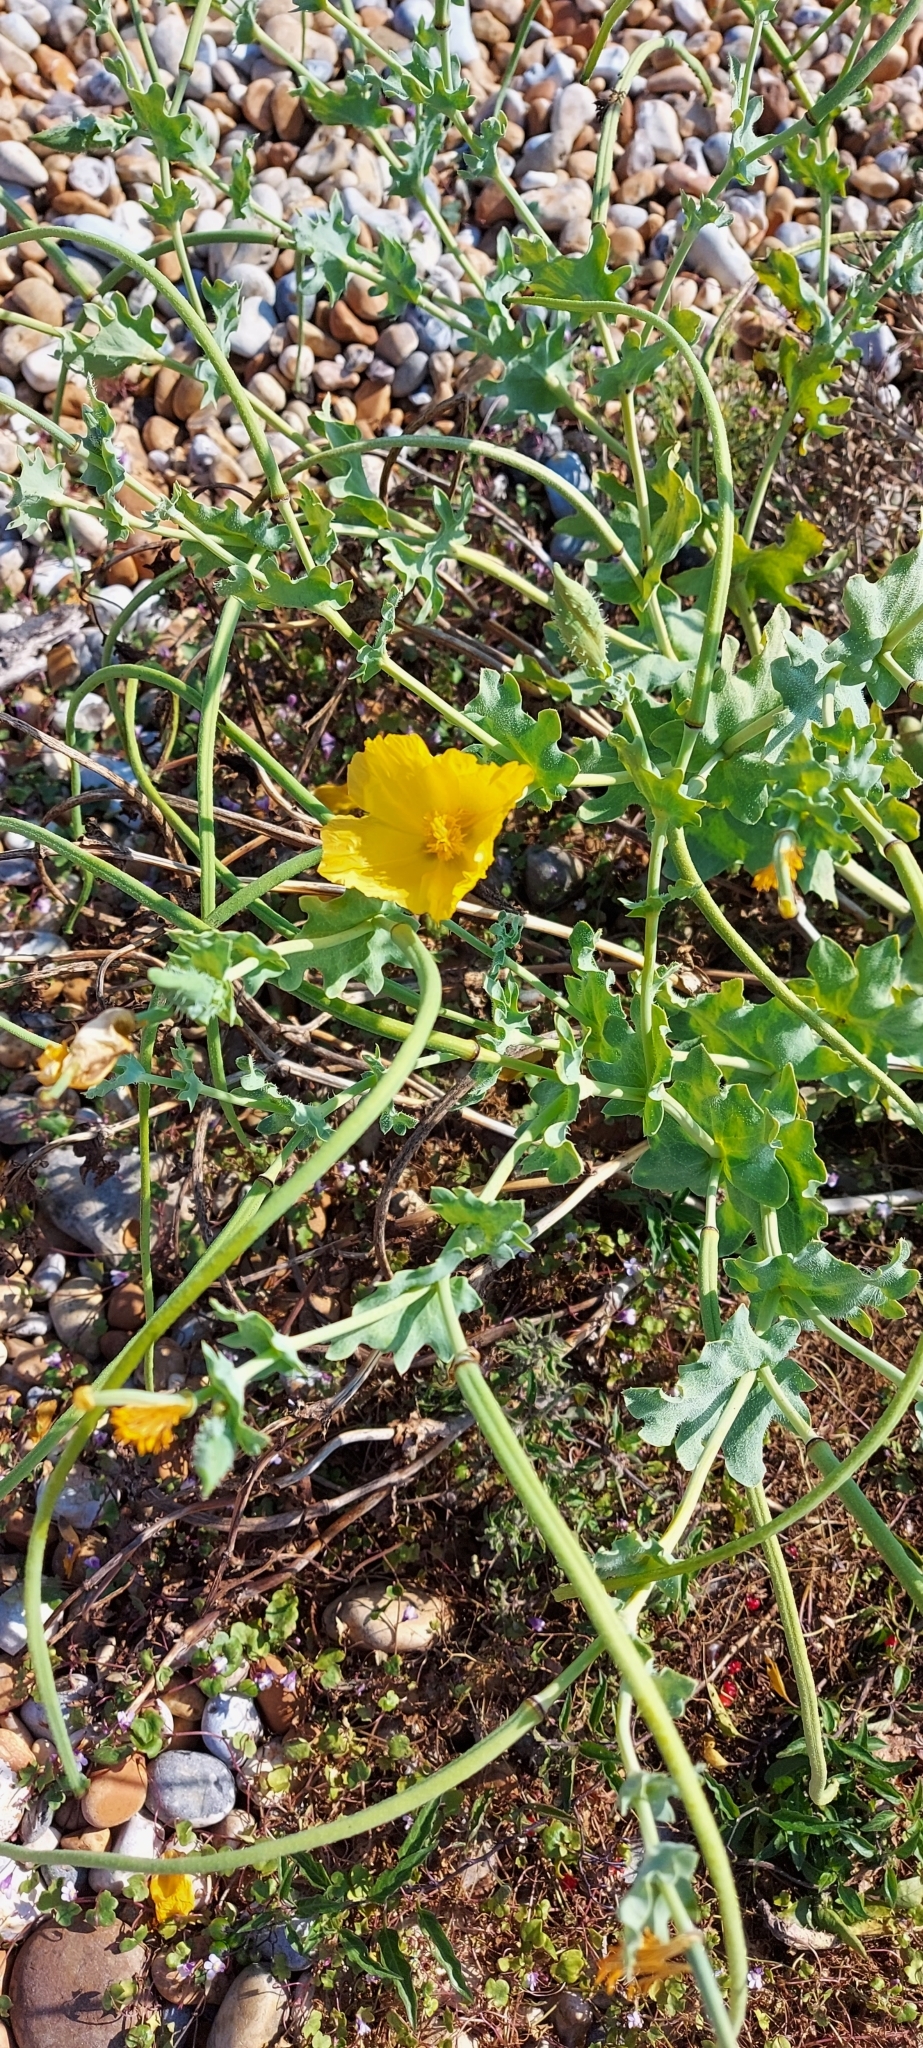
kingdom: Plantae
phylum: Tracheophyta
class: Magnoliopsida
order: Ranunculales
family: Papaveraceae
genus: Glaucium
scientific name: Glaucium flavum
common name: Yellow horned-poppy
